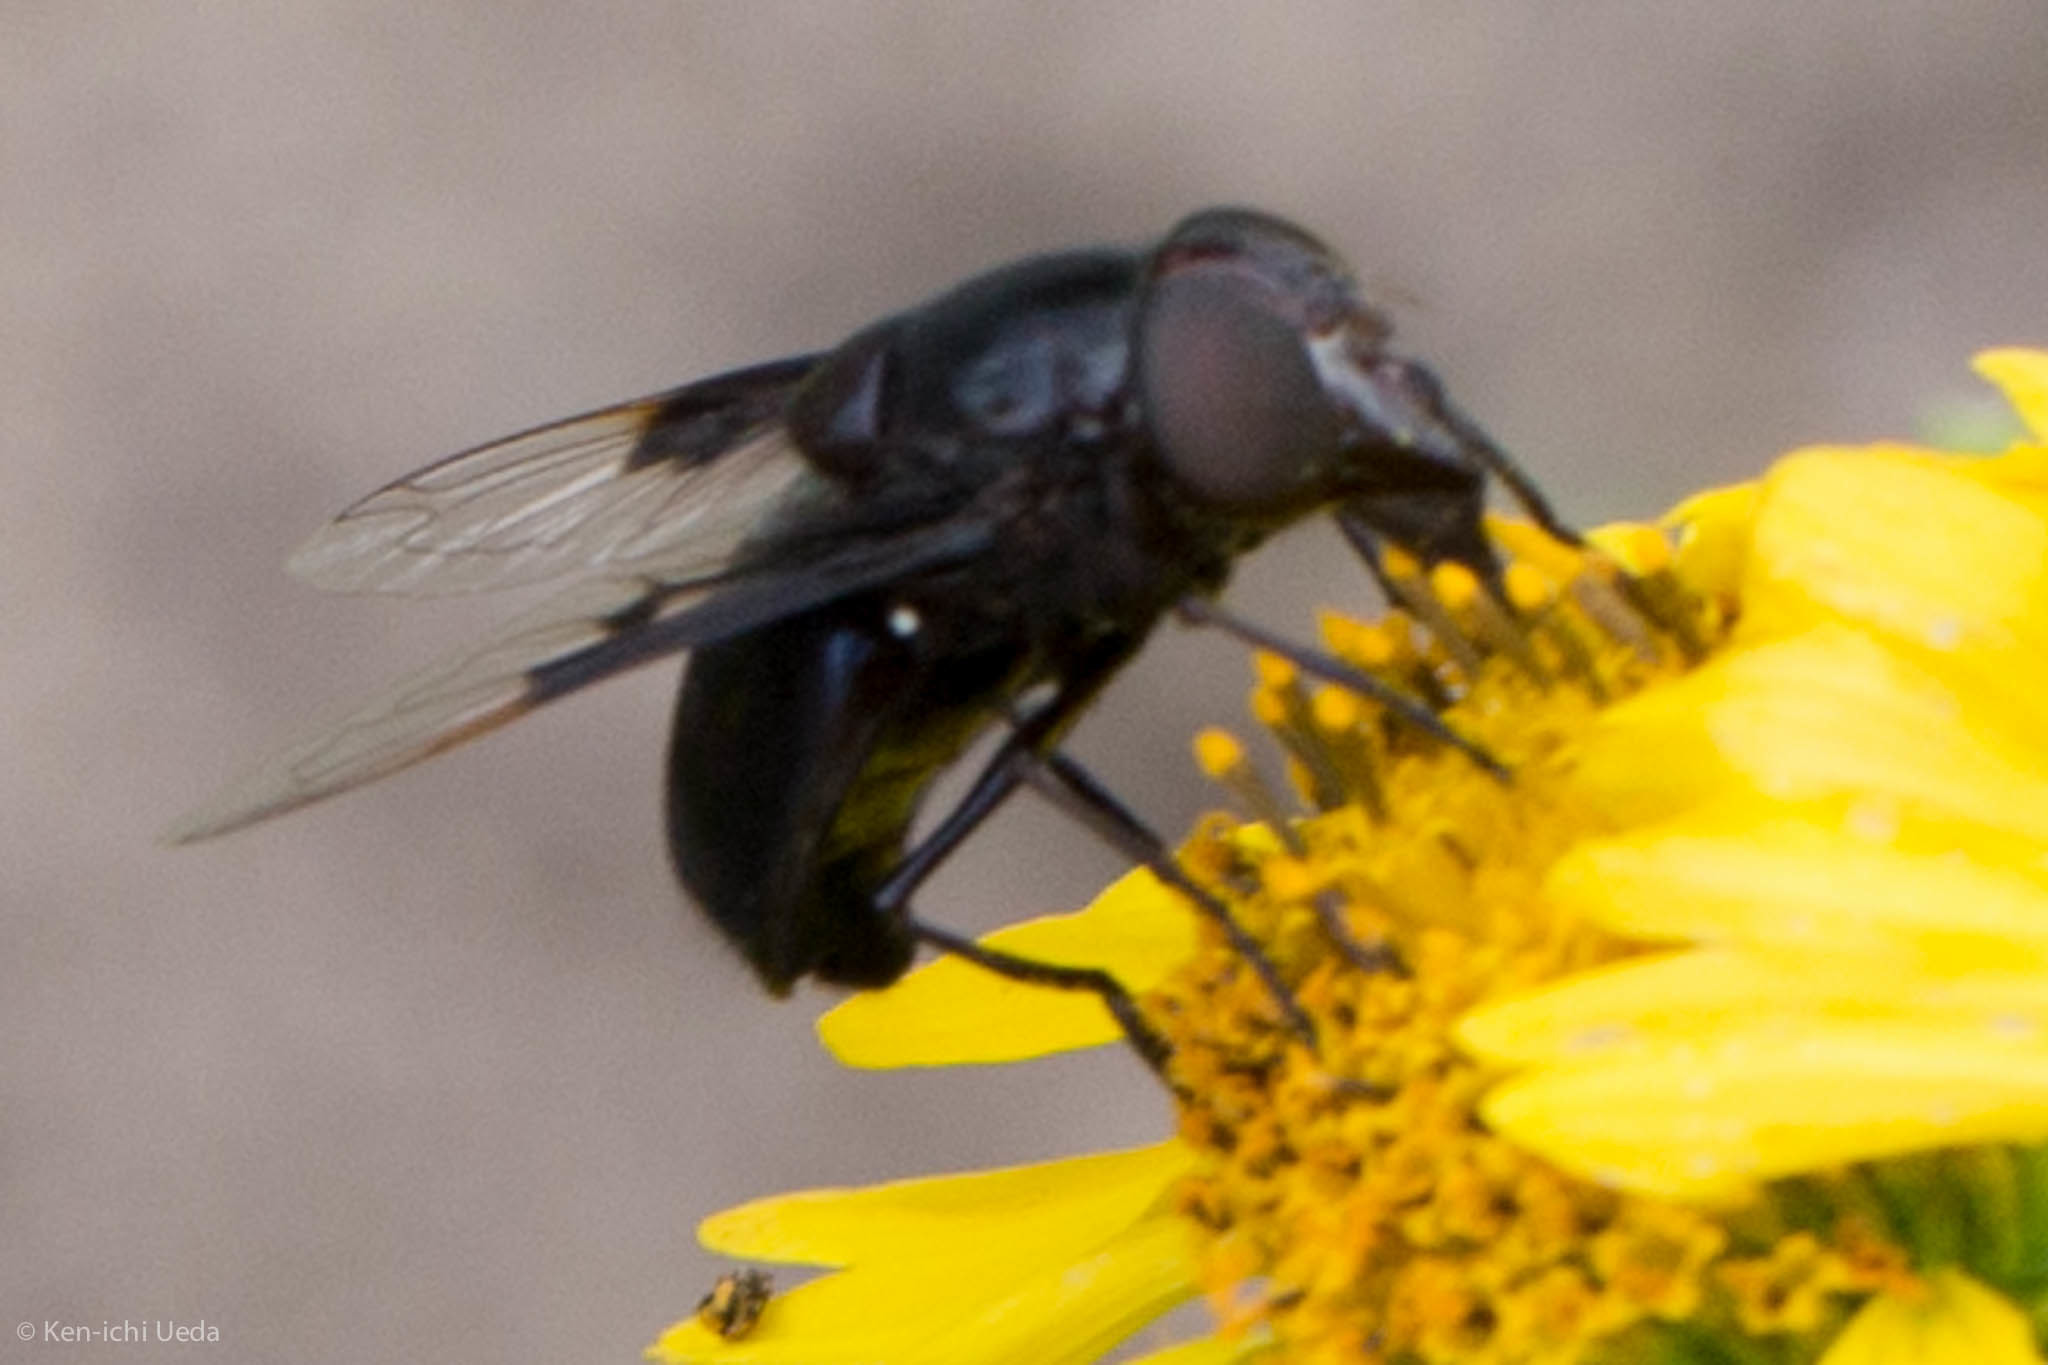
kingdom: Animalia
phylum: Arthropoda
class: Insecta
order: Diptera
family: Syrphidae
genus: Copestylum
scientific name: Copestylum mexicanum
